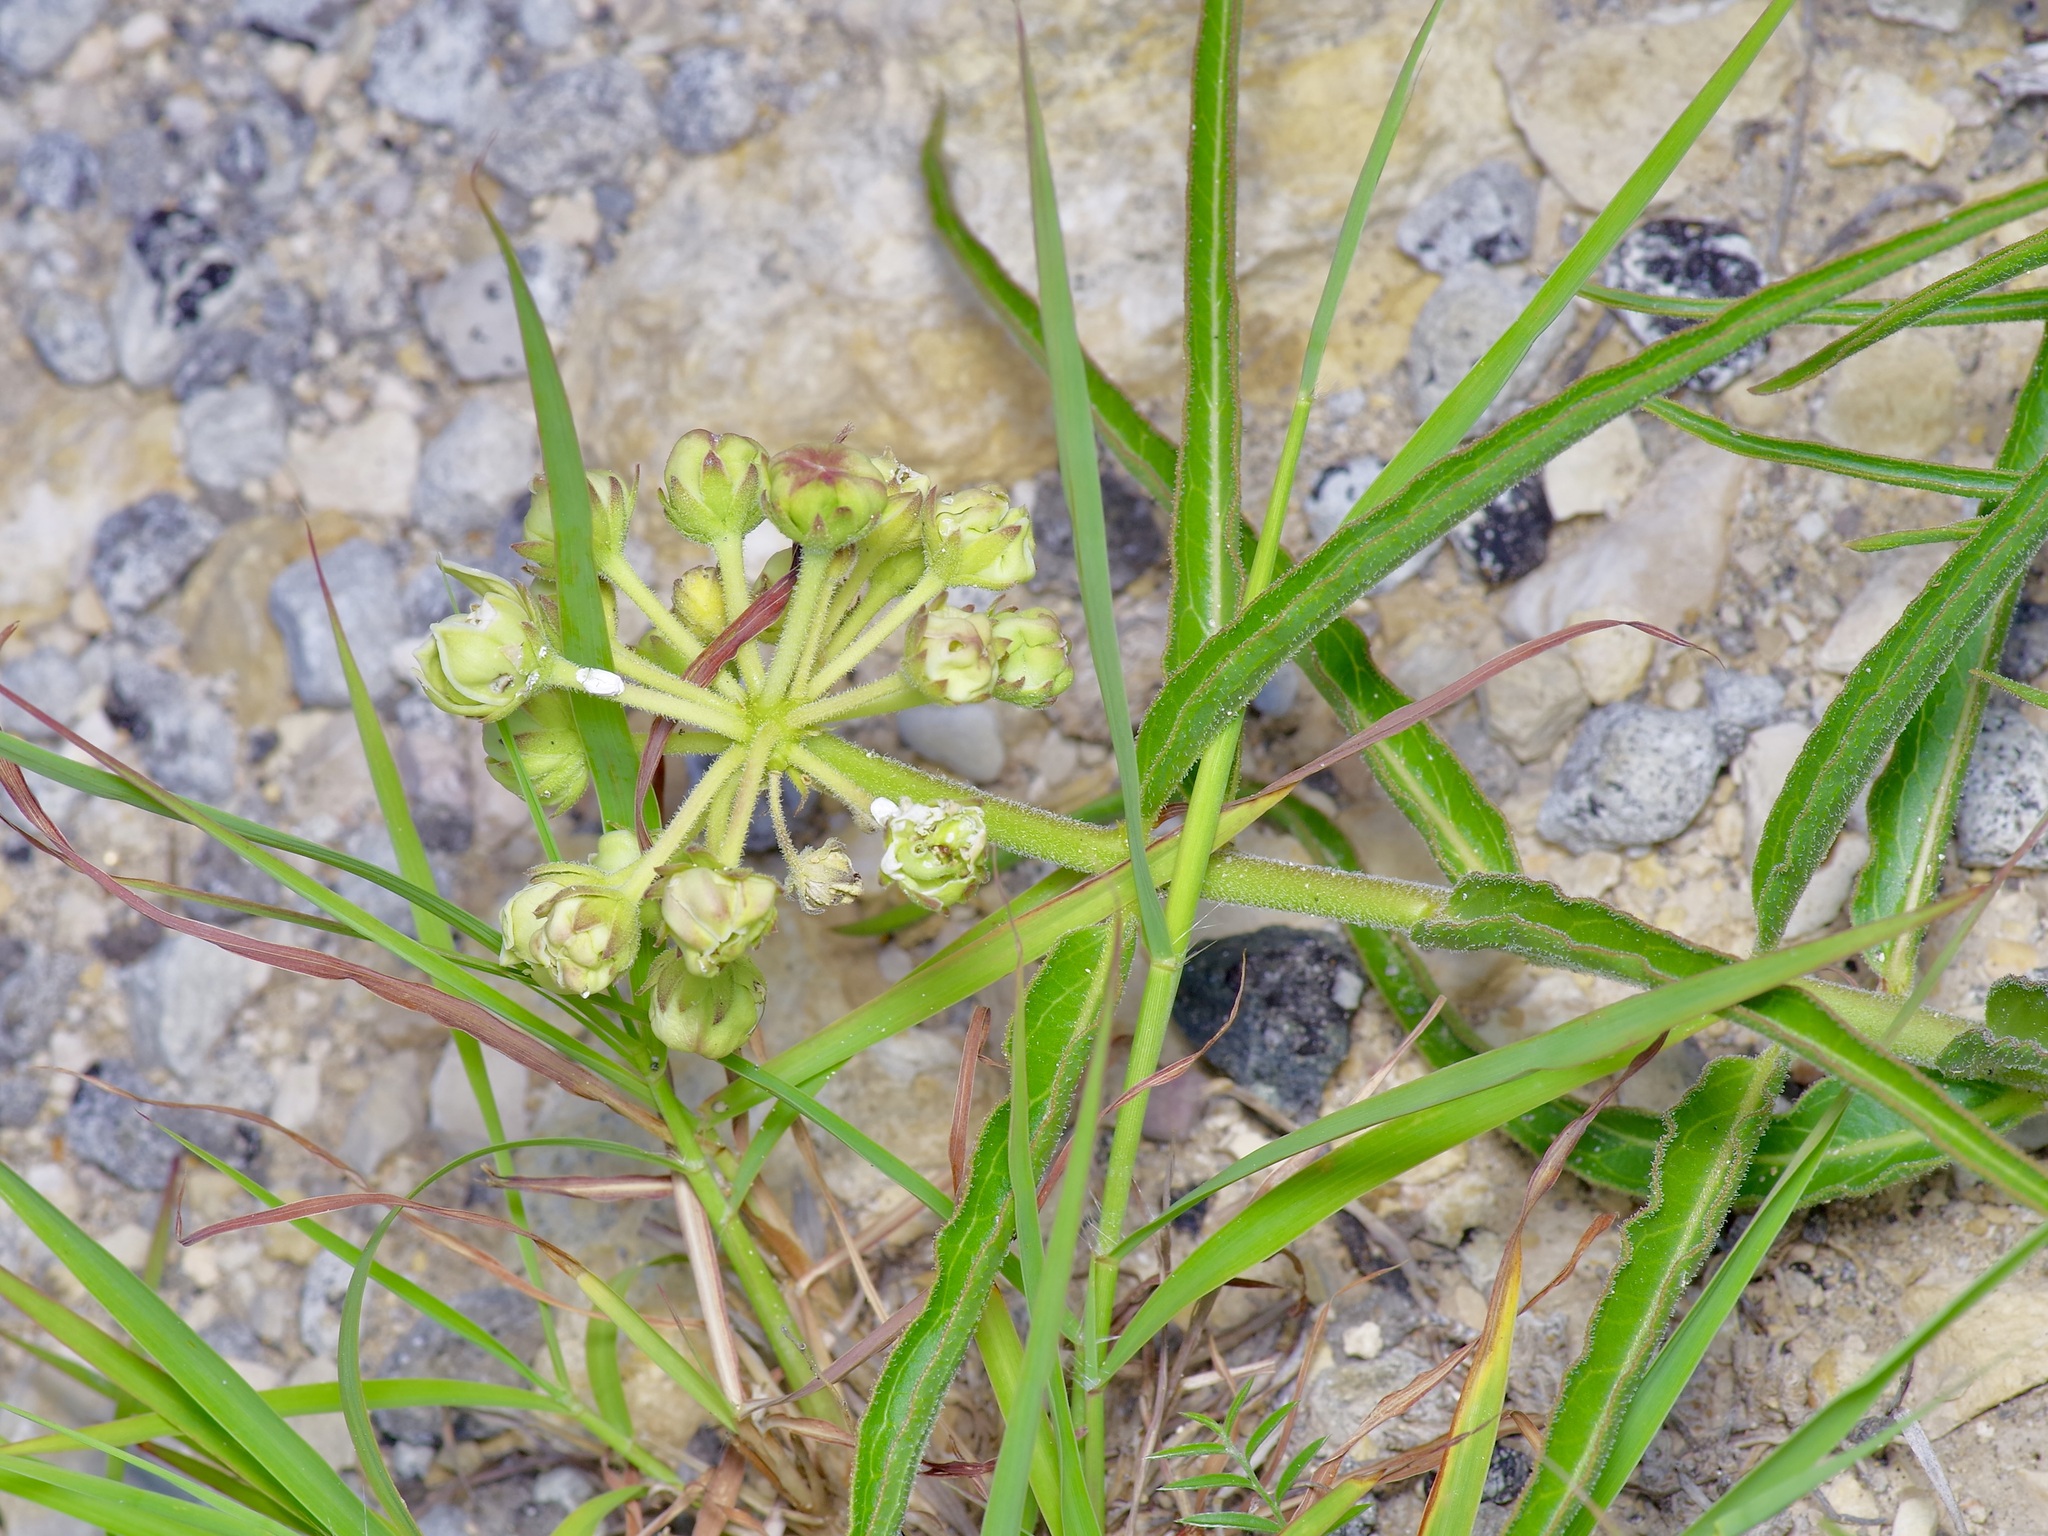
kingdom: Plantae
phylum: Tracheophyta
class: Magnoliopsida
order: Gentianales
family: Apocynaceae
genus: Asclepias
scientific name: Asclepias asperula
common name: Antelope horns
